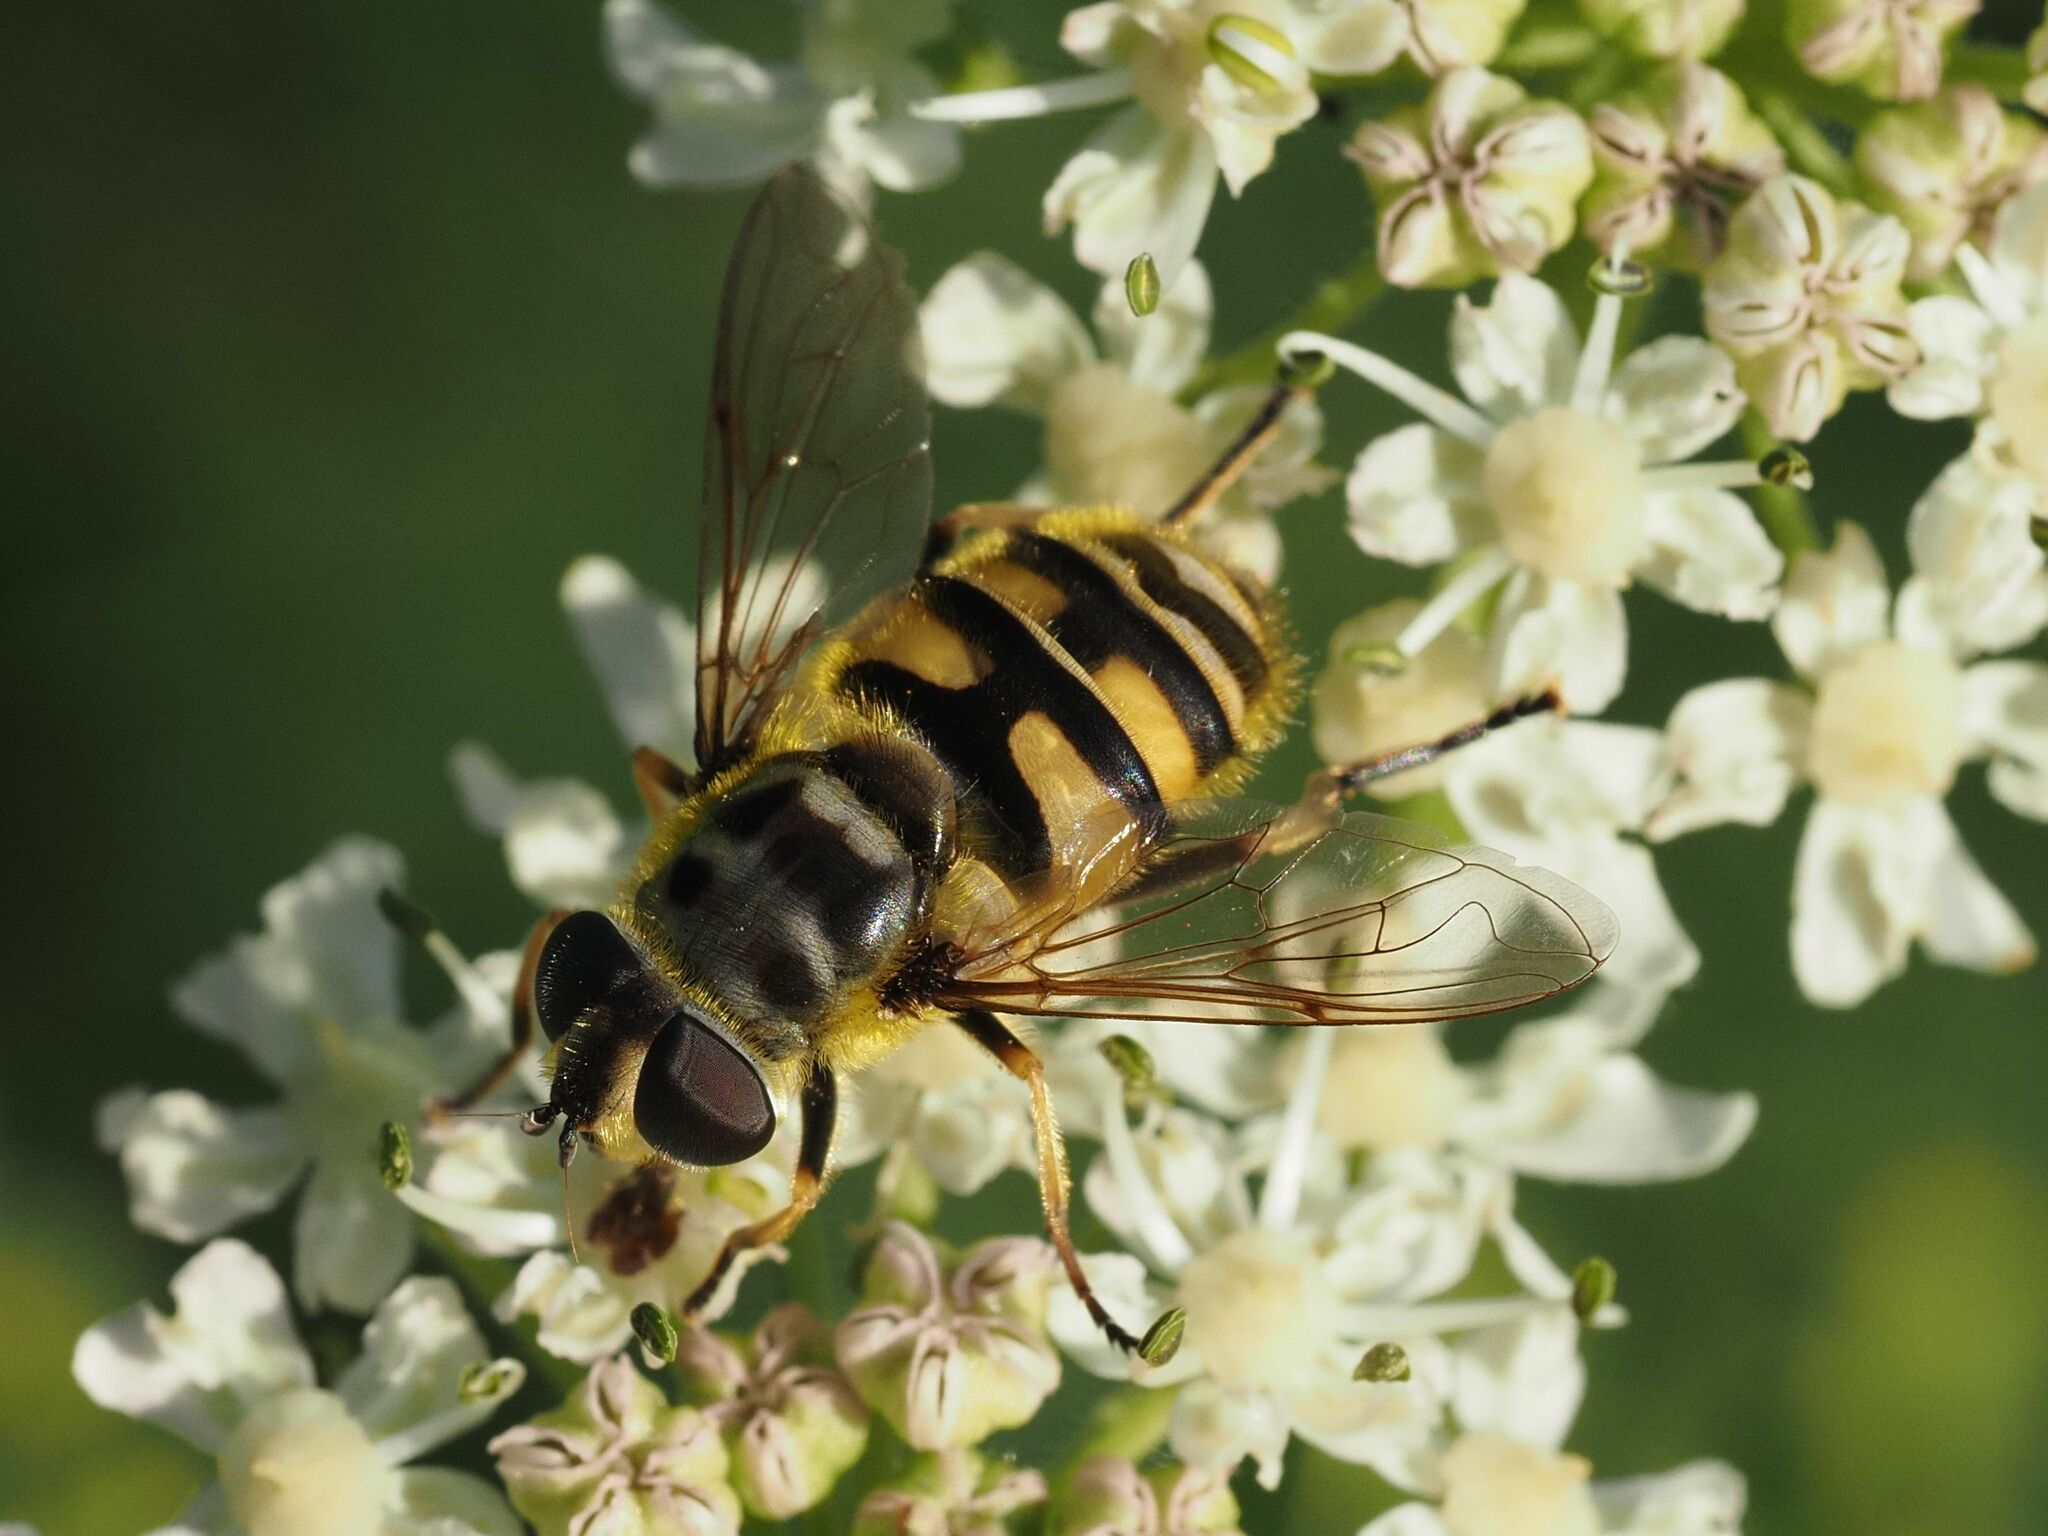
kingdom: Animalia
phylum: Arthropoda
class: Insecta
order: Diptera
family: Syrphidae
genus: Myathropa
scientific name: Myathropa florea
